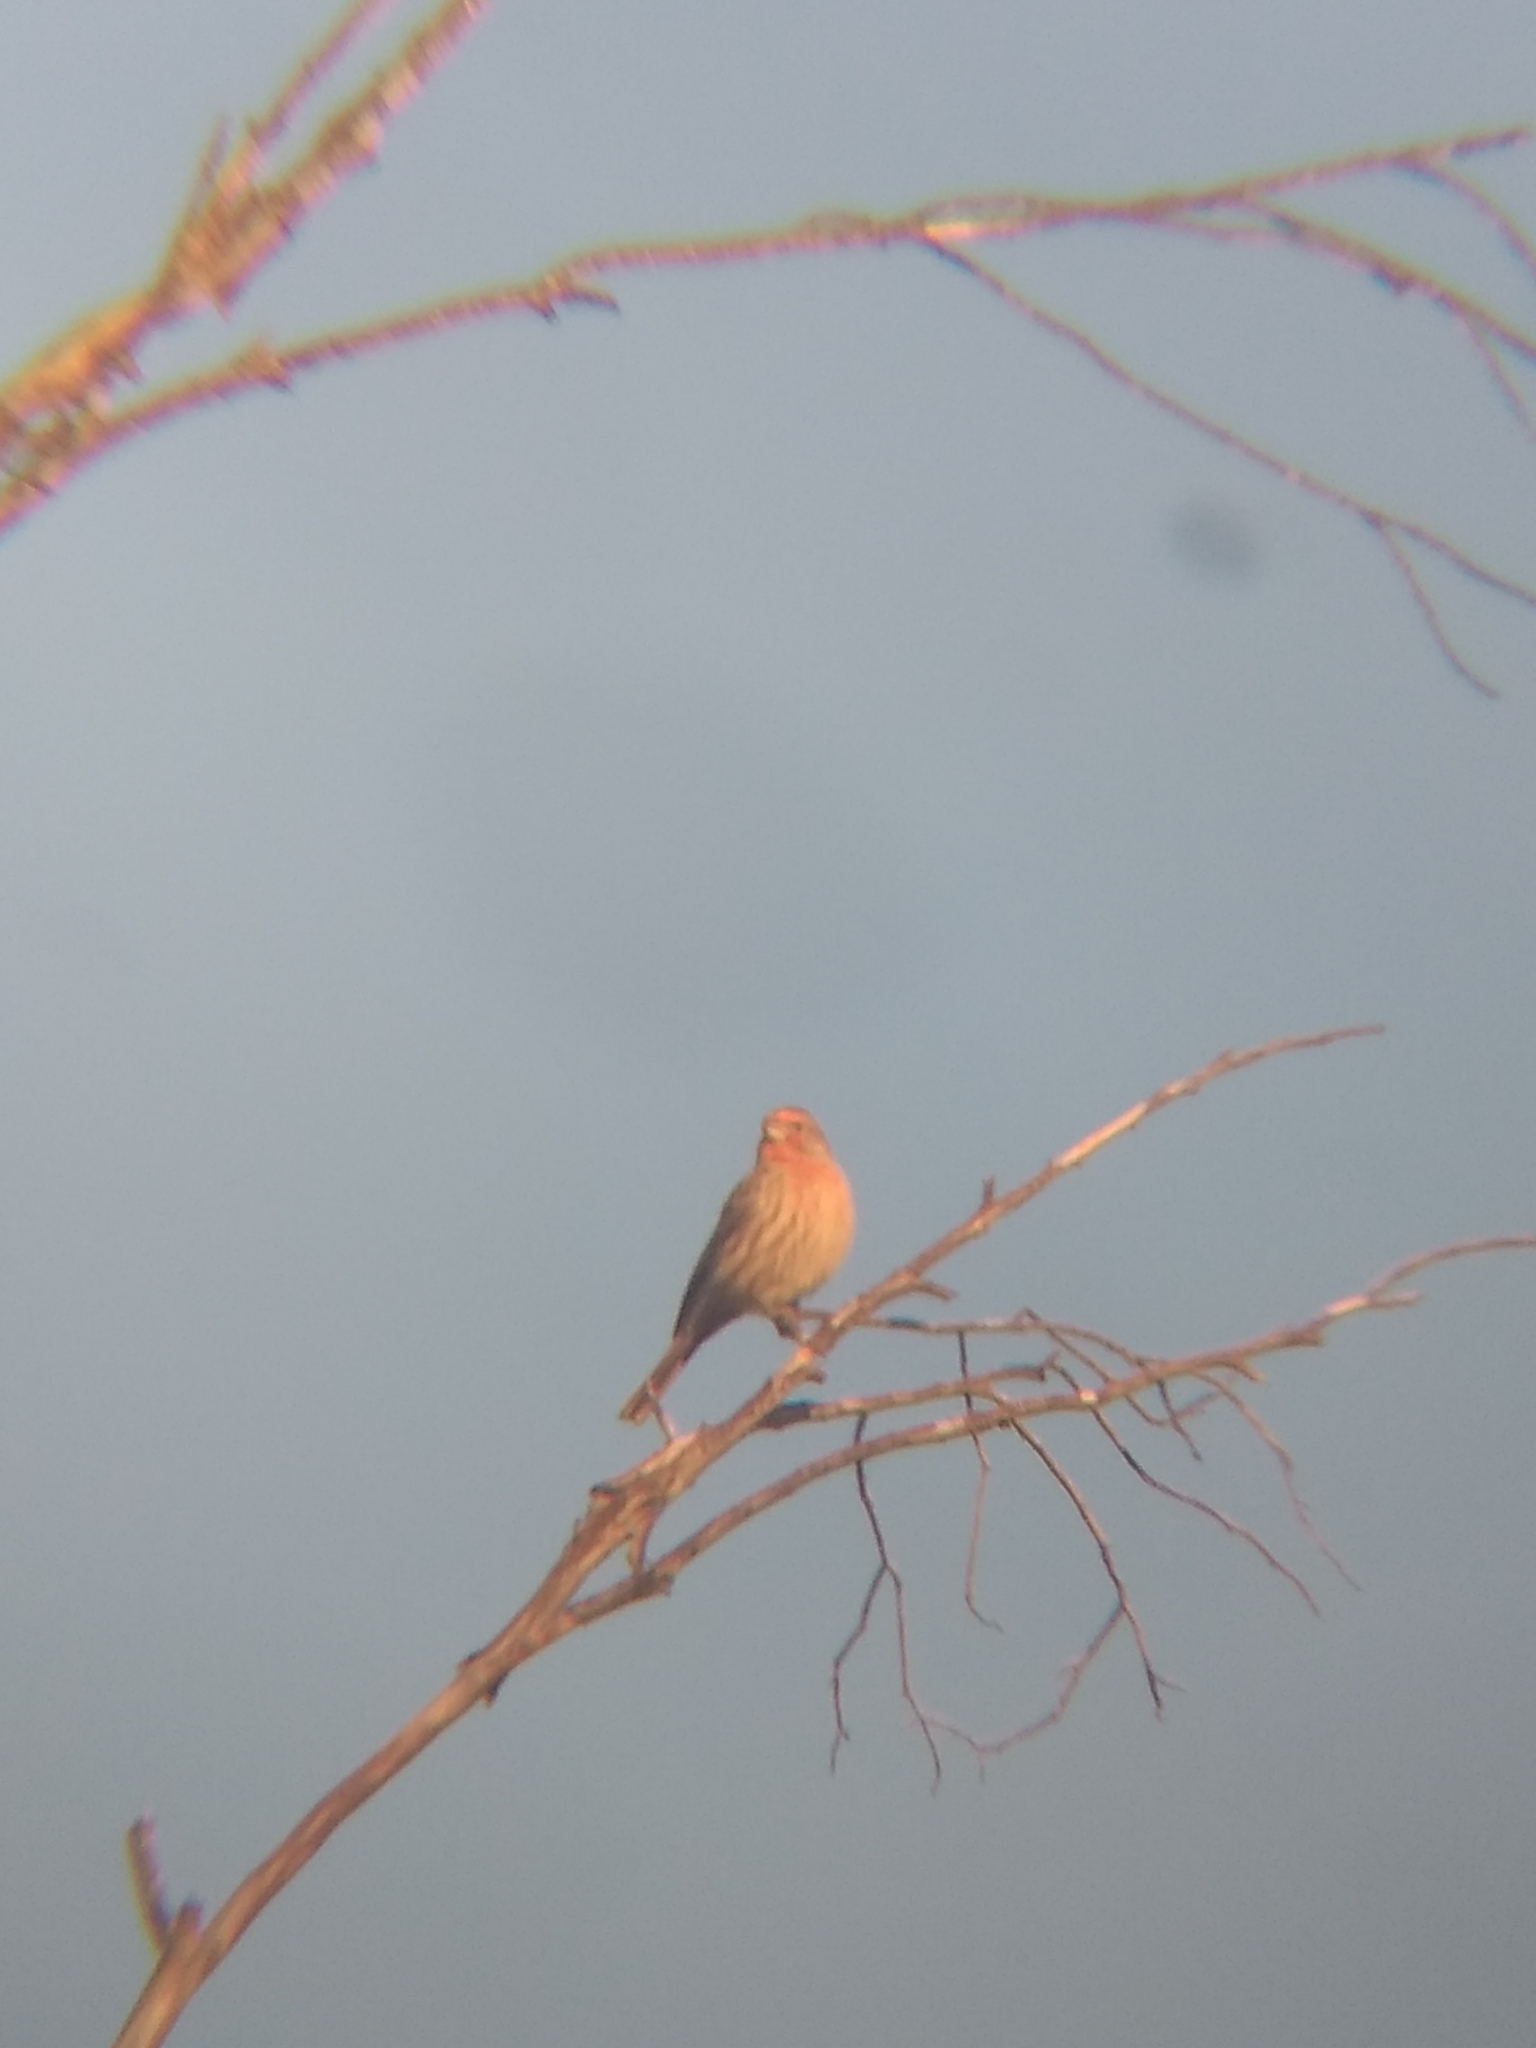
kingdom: Animalia
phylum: Chordata
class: Aves
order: Passeriformes
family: Fringillidae
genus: Haemorhous
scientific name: Haemorhous mexicanus
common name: House finch
